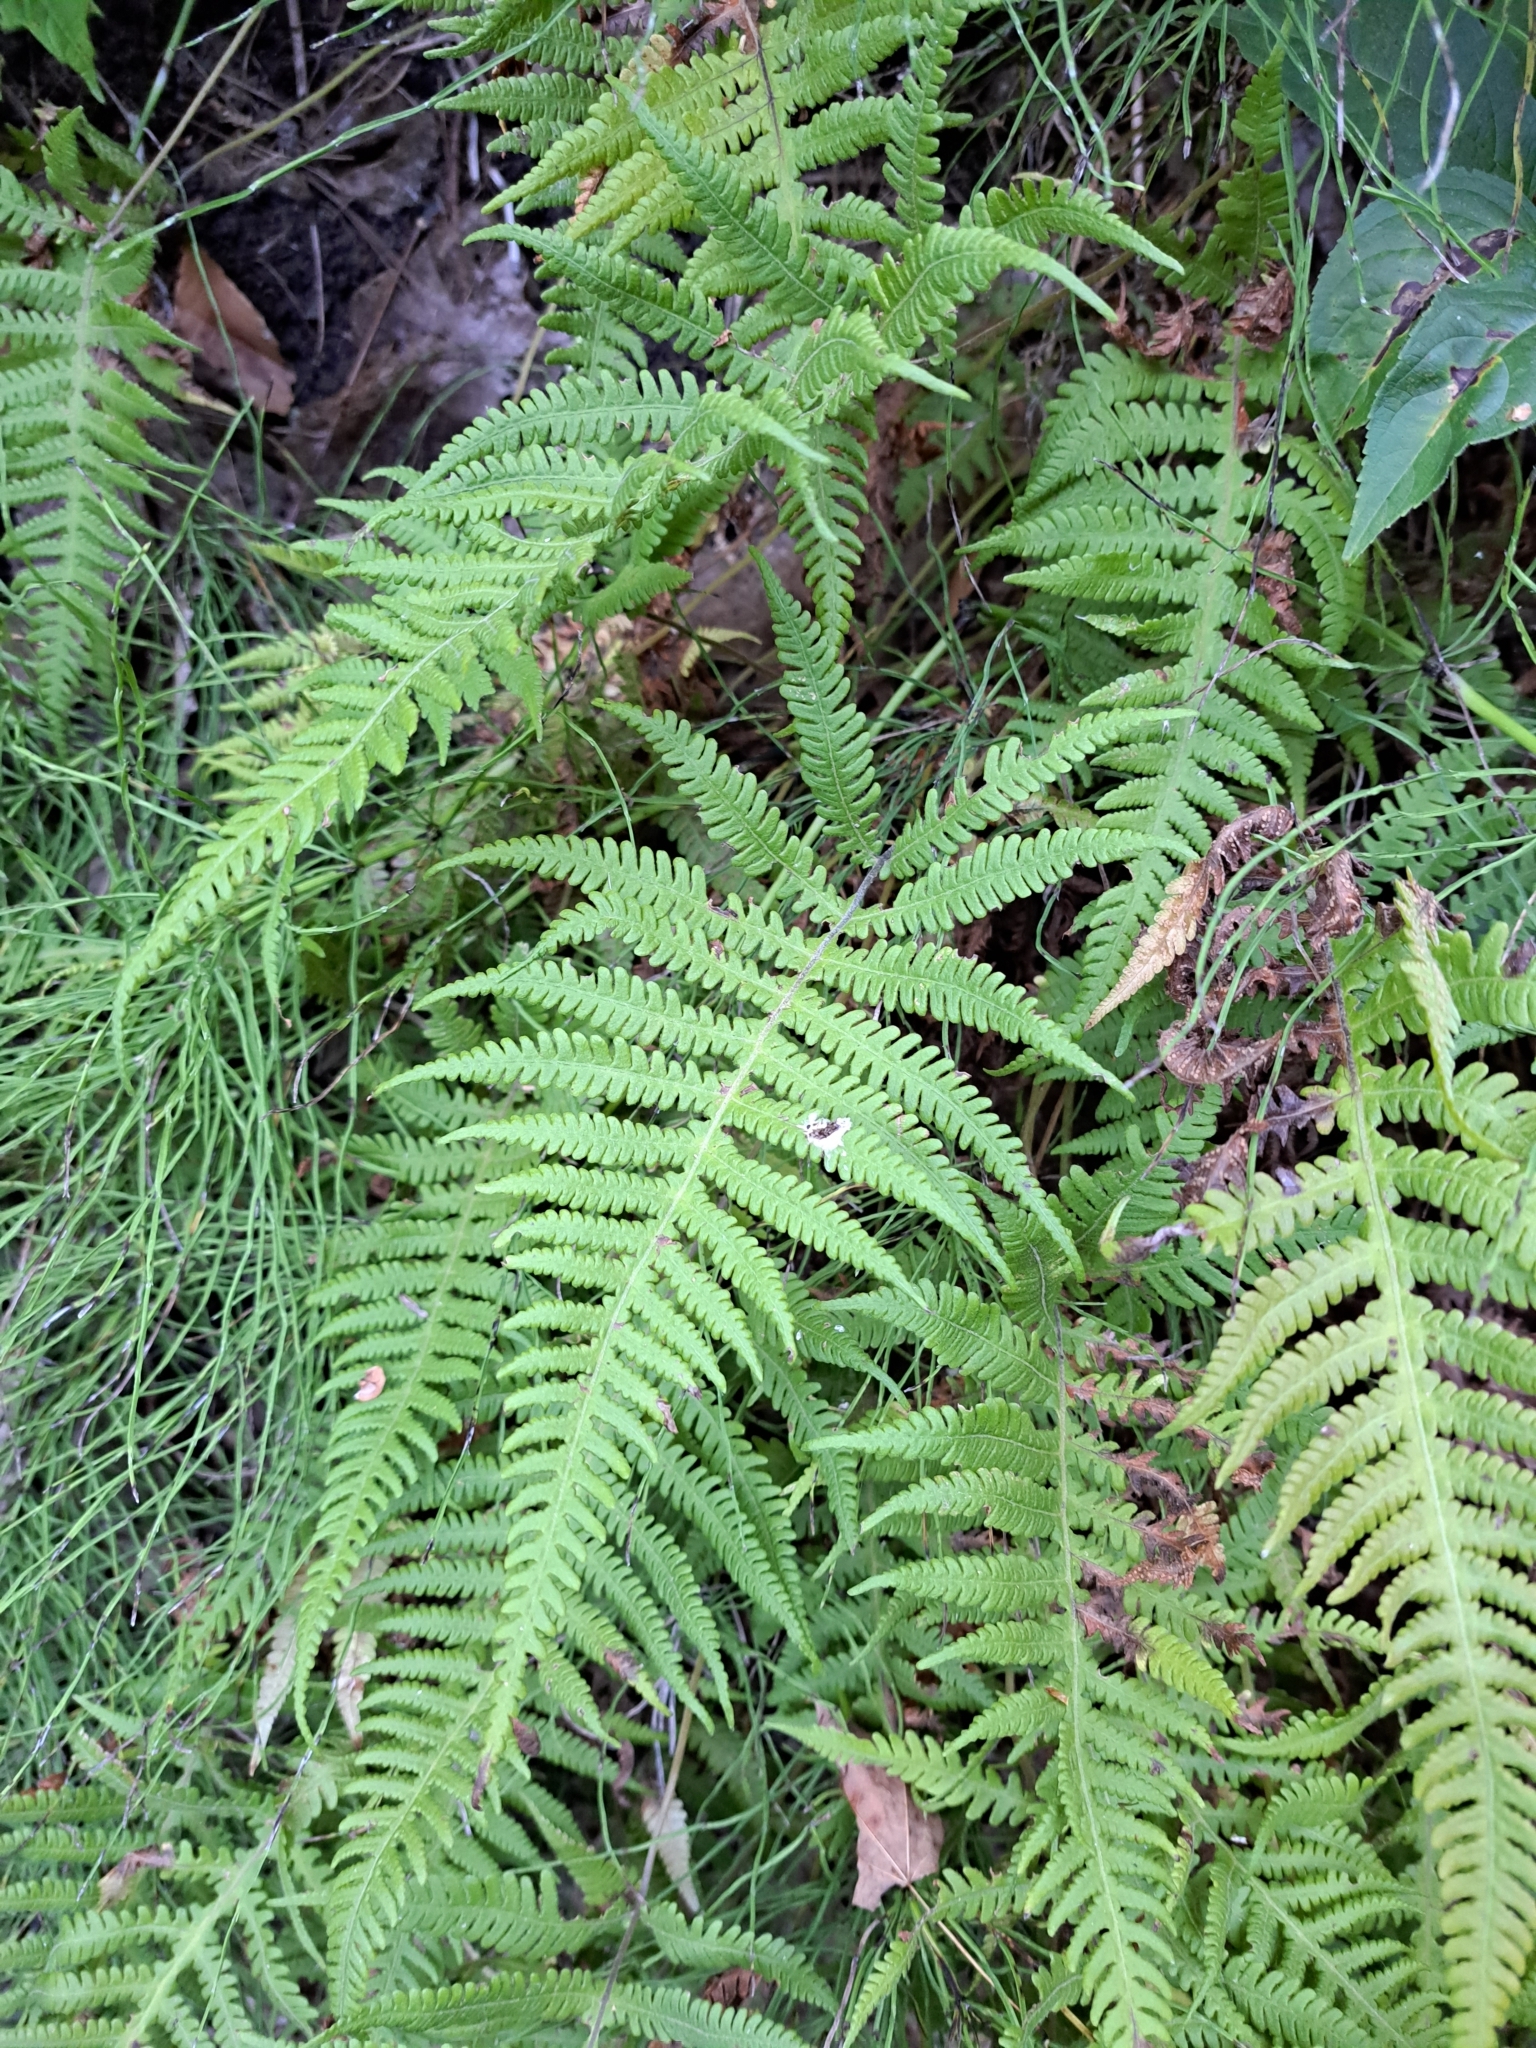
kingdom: Plantae
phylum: Tracheophyta
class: Polypodiopsida
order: Polypodiales
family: Thelypteridaceae
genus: Phegopteris
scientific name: Phegopteris connectilis
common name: Beech fern
